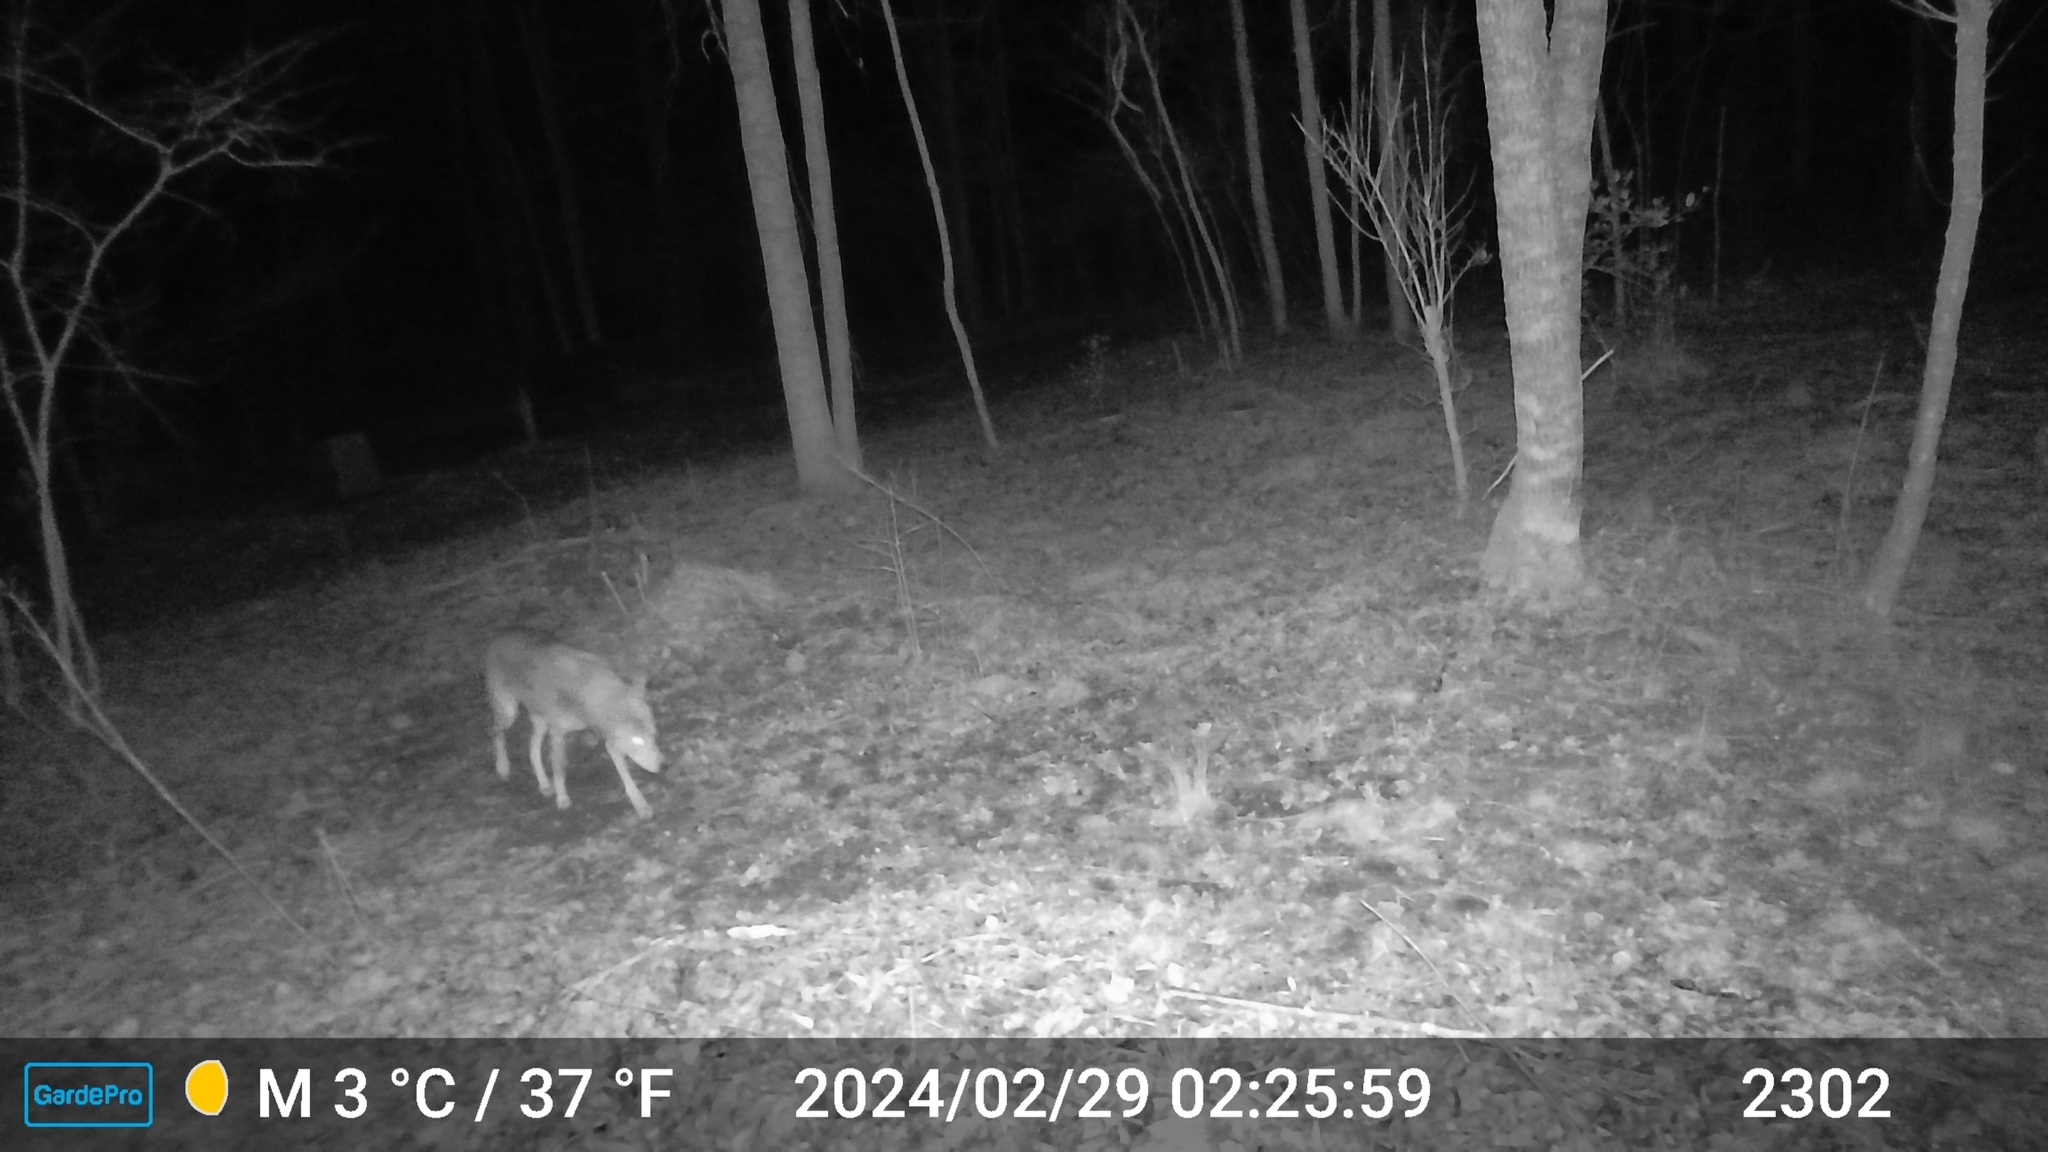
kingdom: Animalia
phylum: Chordata
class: Mammalia
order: Carnivora
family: Canidae
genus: Canis
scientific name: Canis latrans
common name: Coyote
